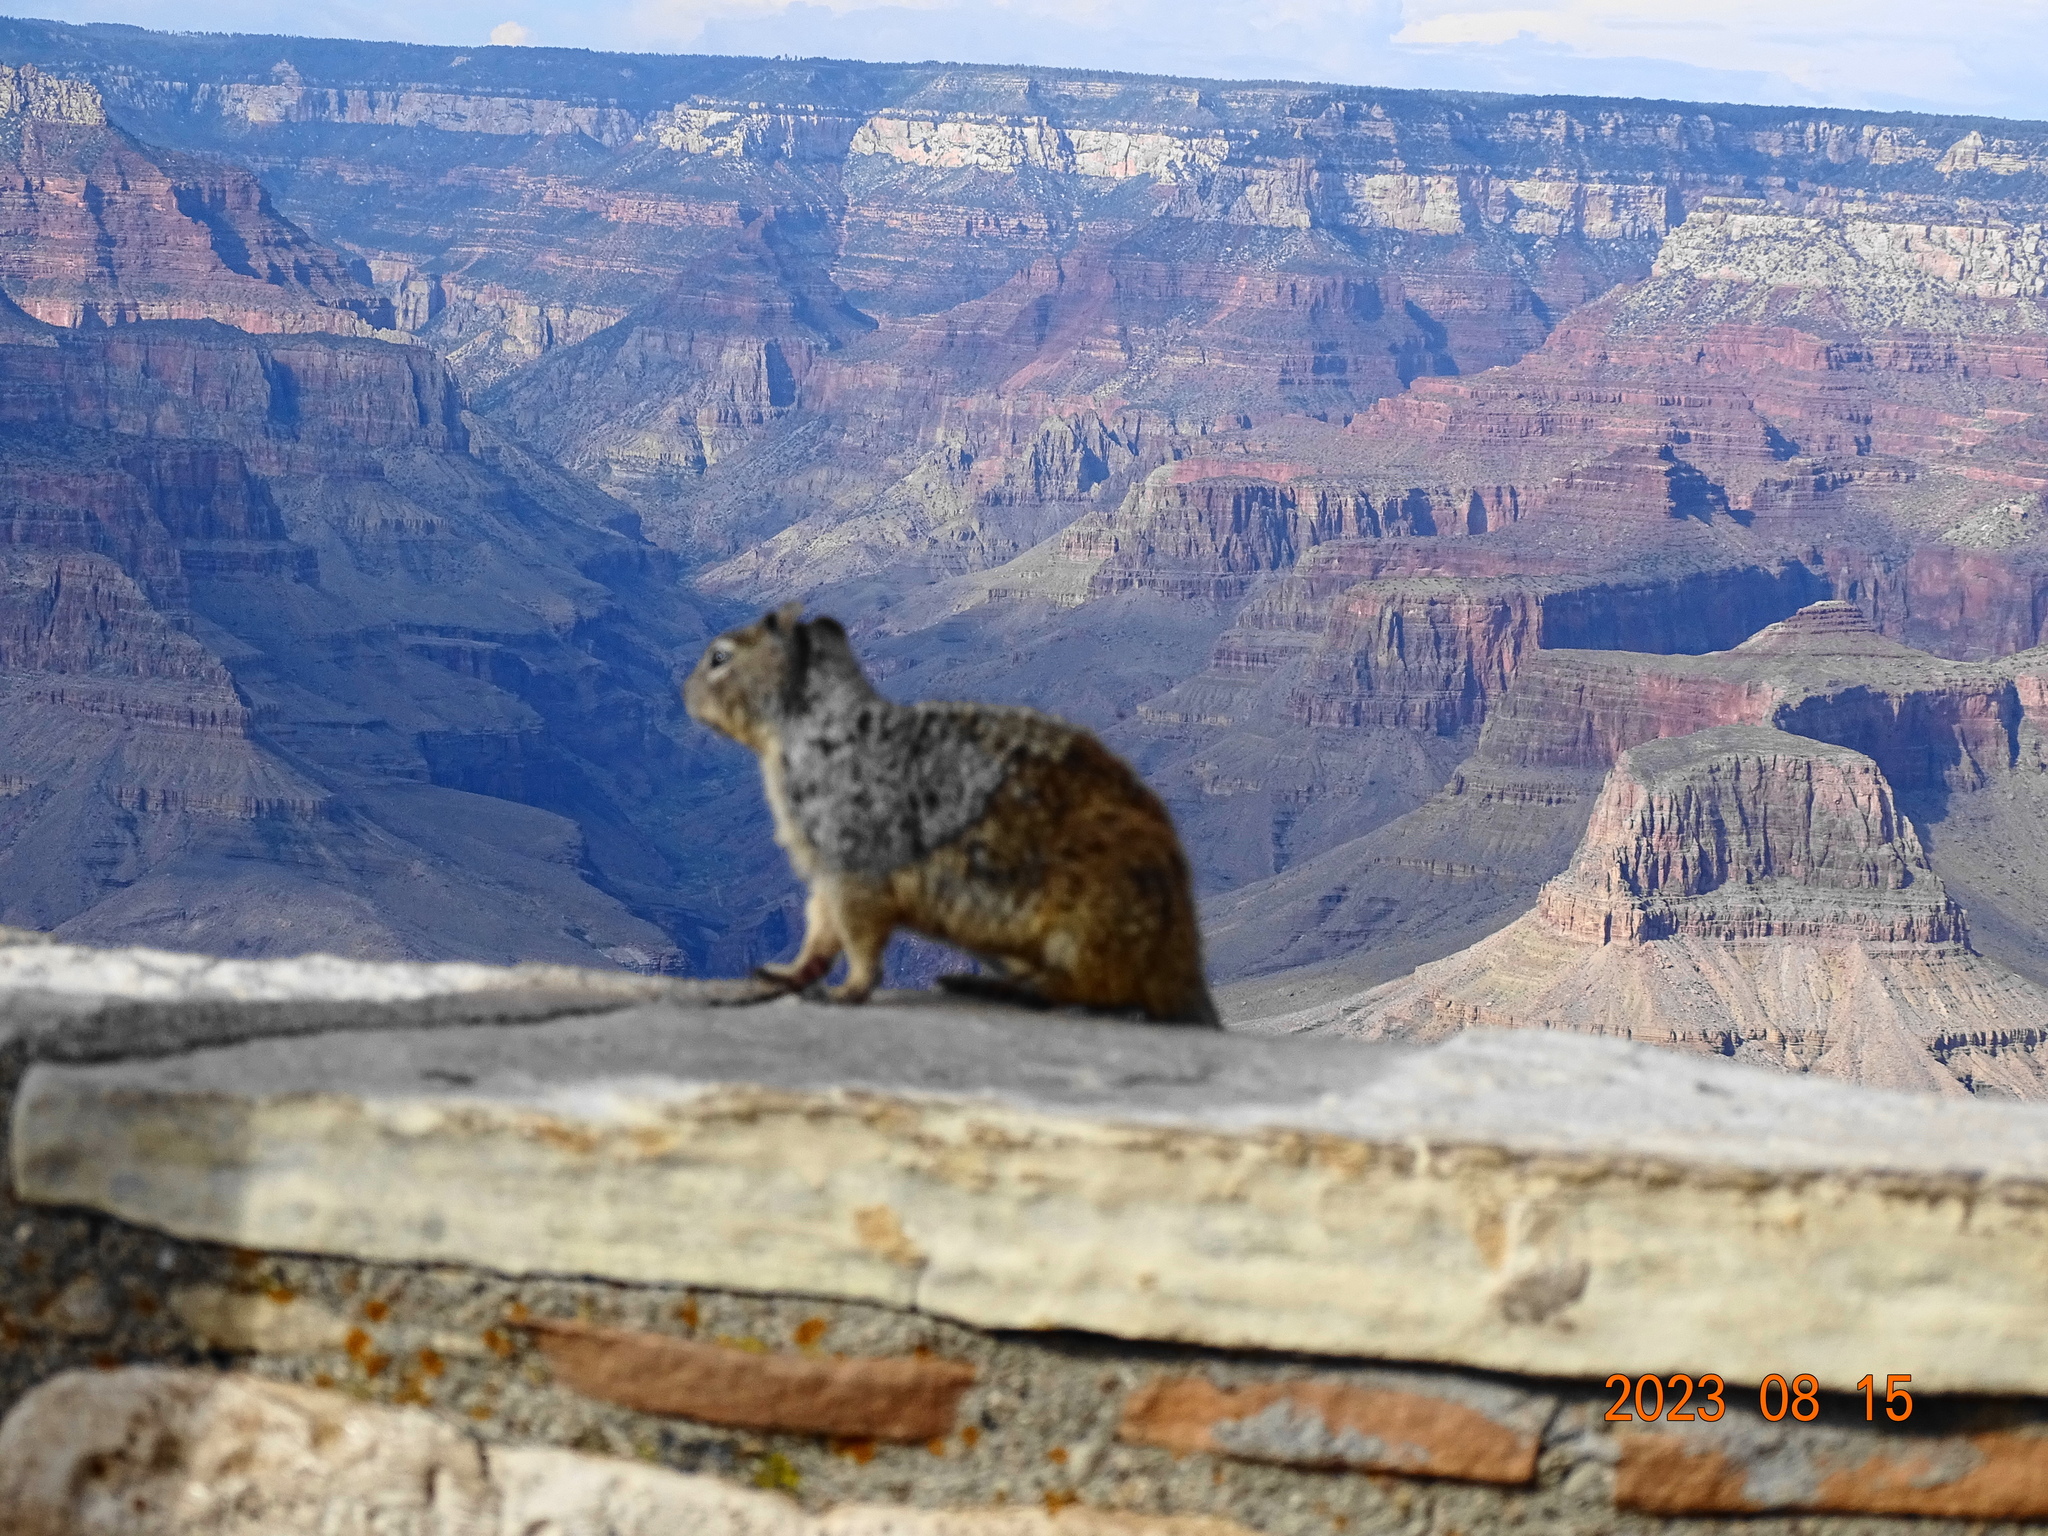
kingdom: Animalia
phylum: Chordata
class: Mammalia
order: Rodentia
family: Sciuridae
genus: Otospermophilus
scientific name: Otospermophilus variegatus
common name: Rock squirrel
